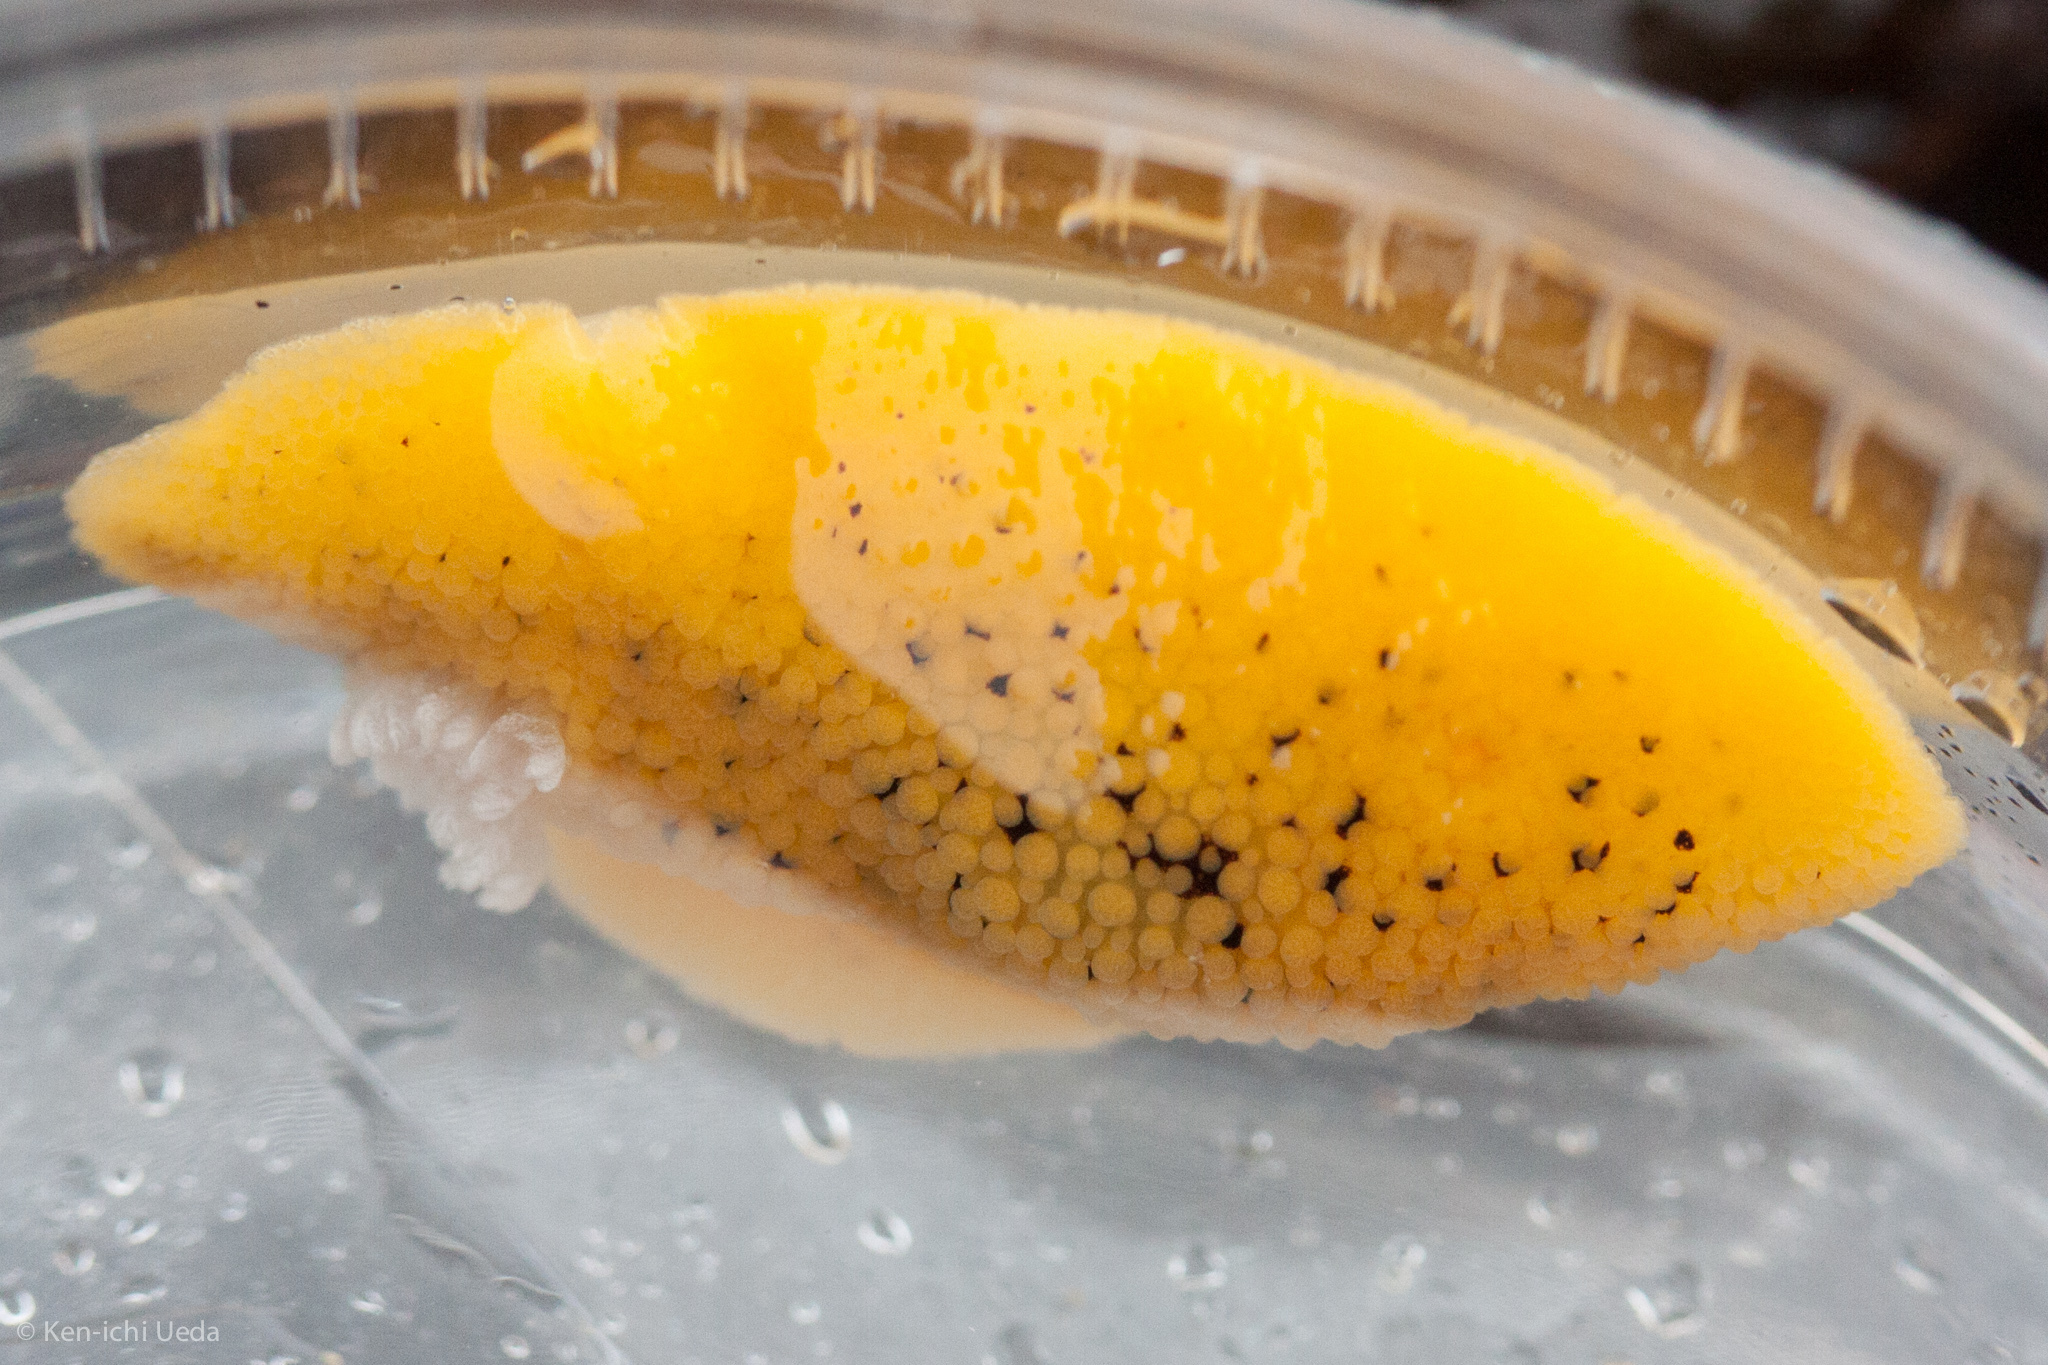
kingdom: Animalia
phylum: Mollusca
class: Gastropoda
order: Nudibranchia
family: Discodorididae
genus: Peltodoris
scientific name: Peltodoris nobilis
